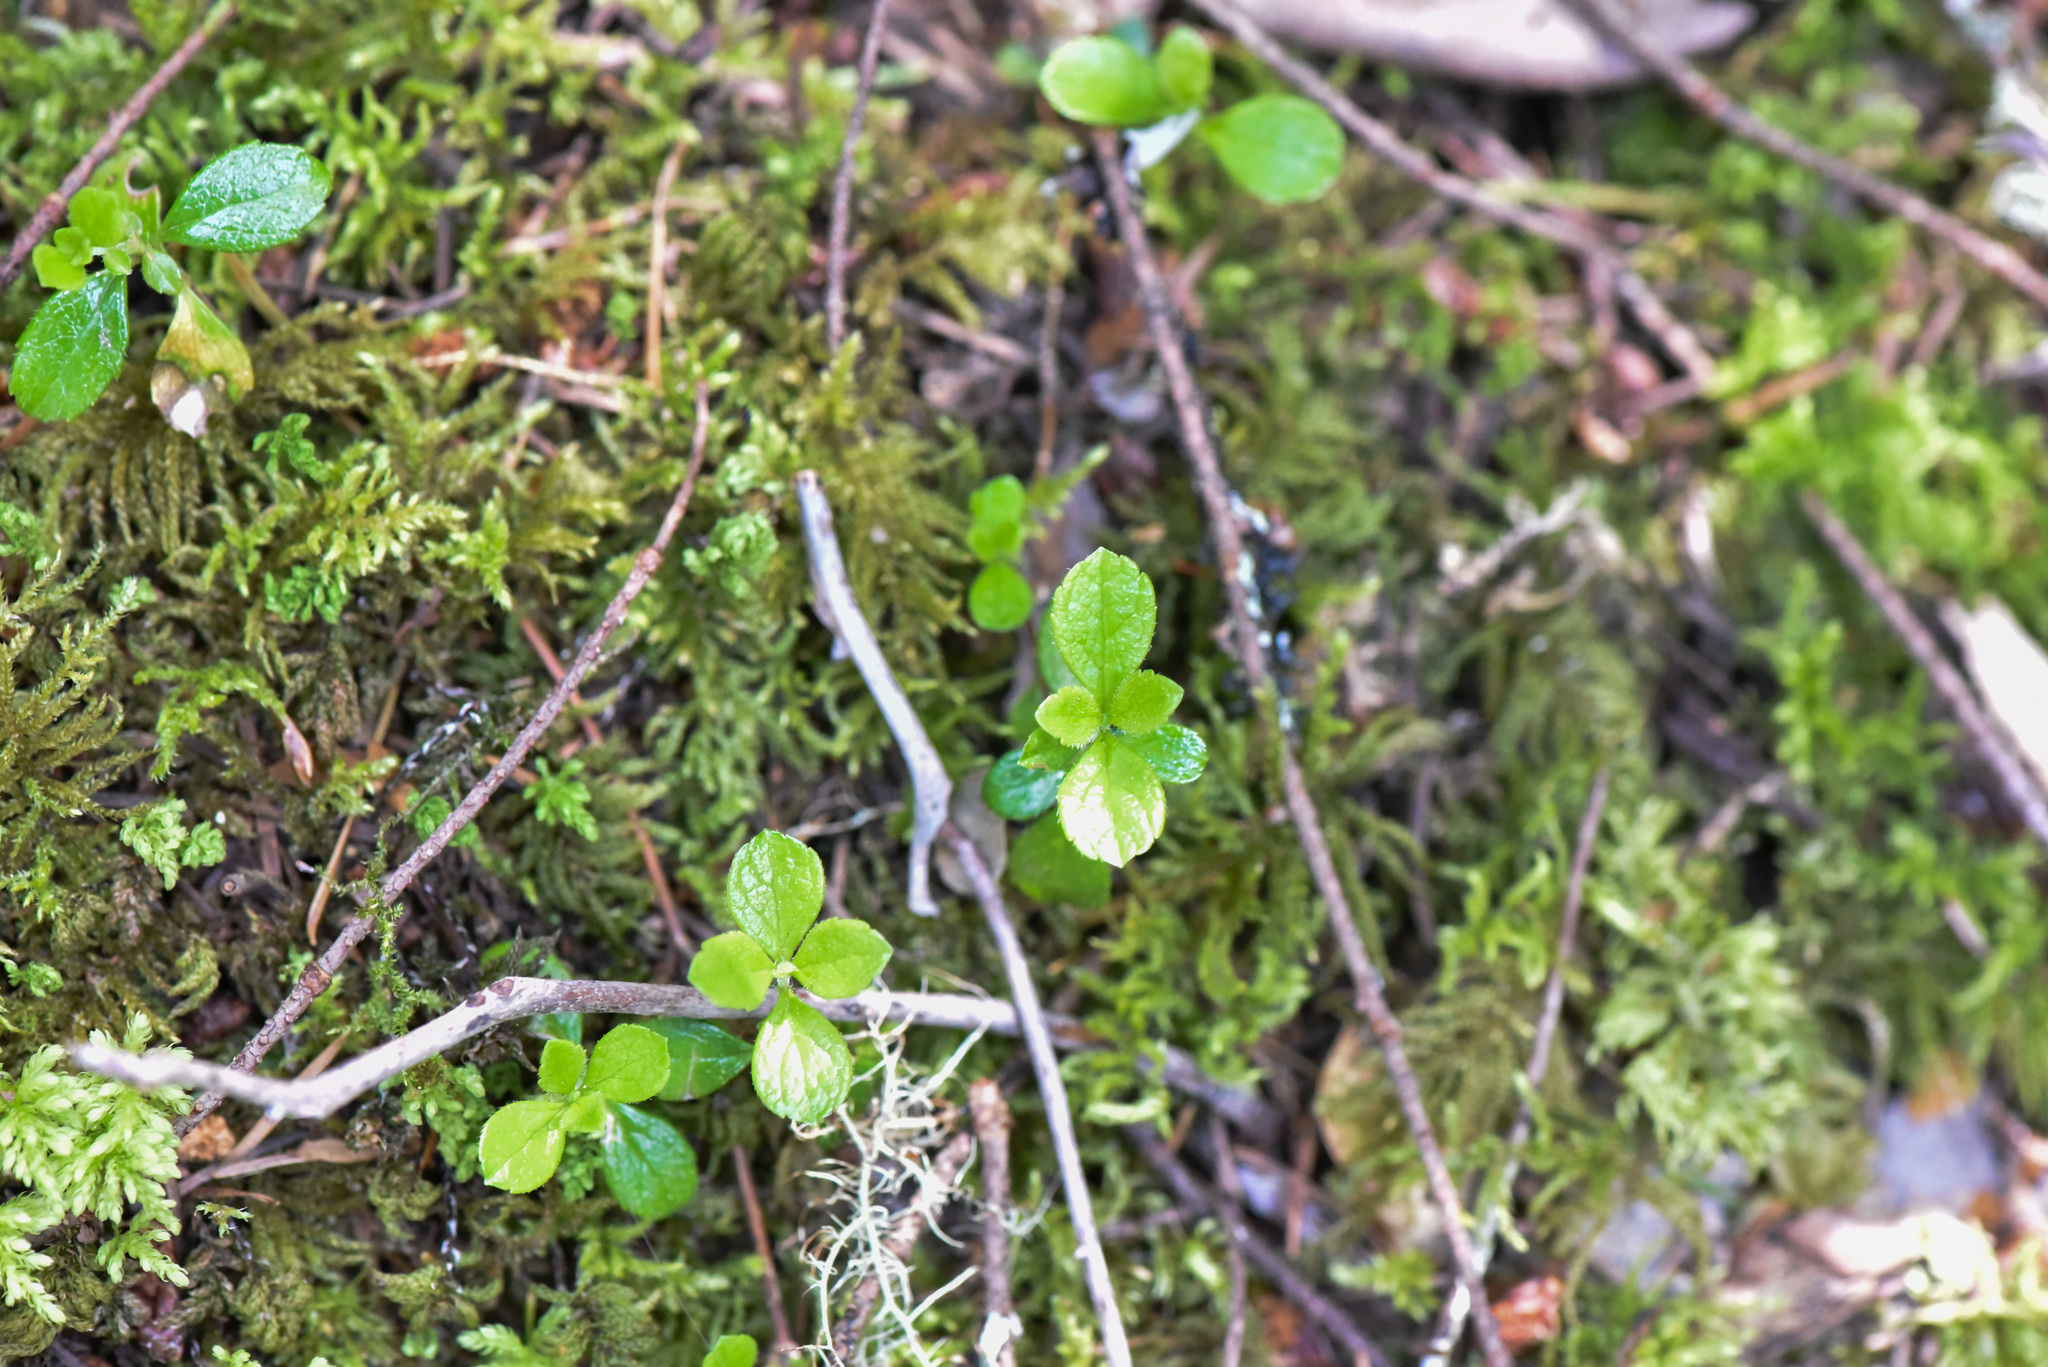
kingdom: Plantae
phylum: Tracheophyta
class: Magnoliopsida
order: Dipsacales
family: Caprifoliaceae
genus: Linnaea
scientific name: Linnaea borealis
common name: Twinflower
